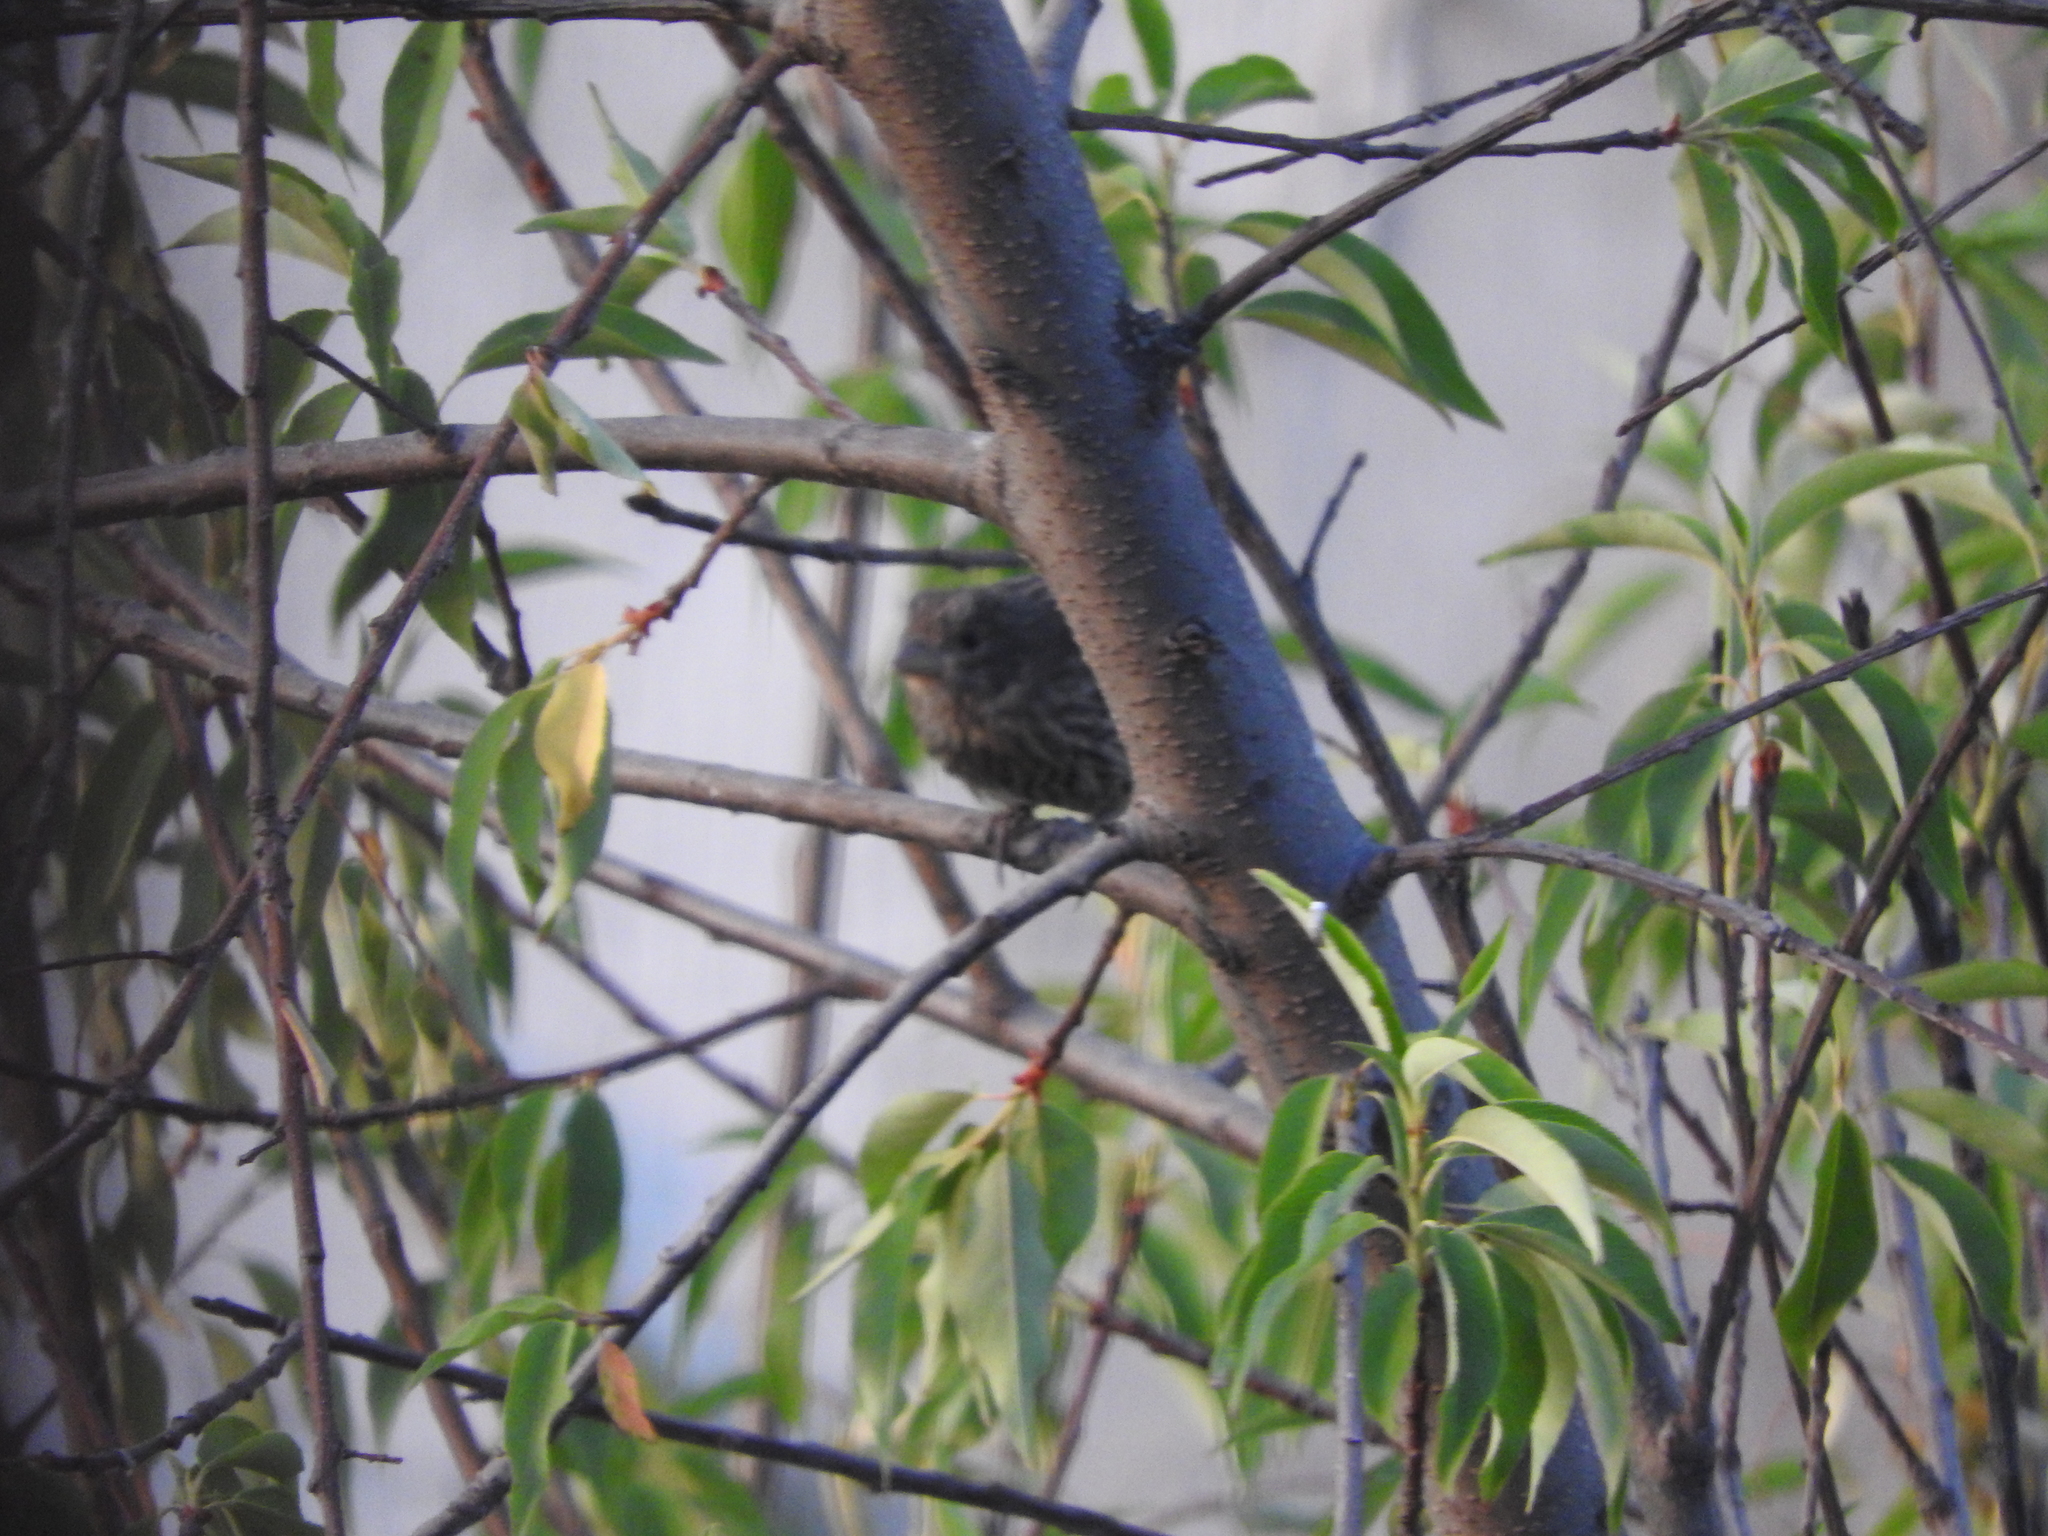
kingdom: Animalia
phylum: Chordata
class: Aves
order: Passeriformes
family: Fringillidae
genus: Haemorhous
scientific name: Haemorhous mexicanus
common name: House finch
